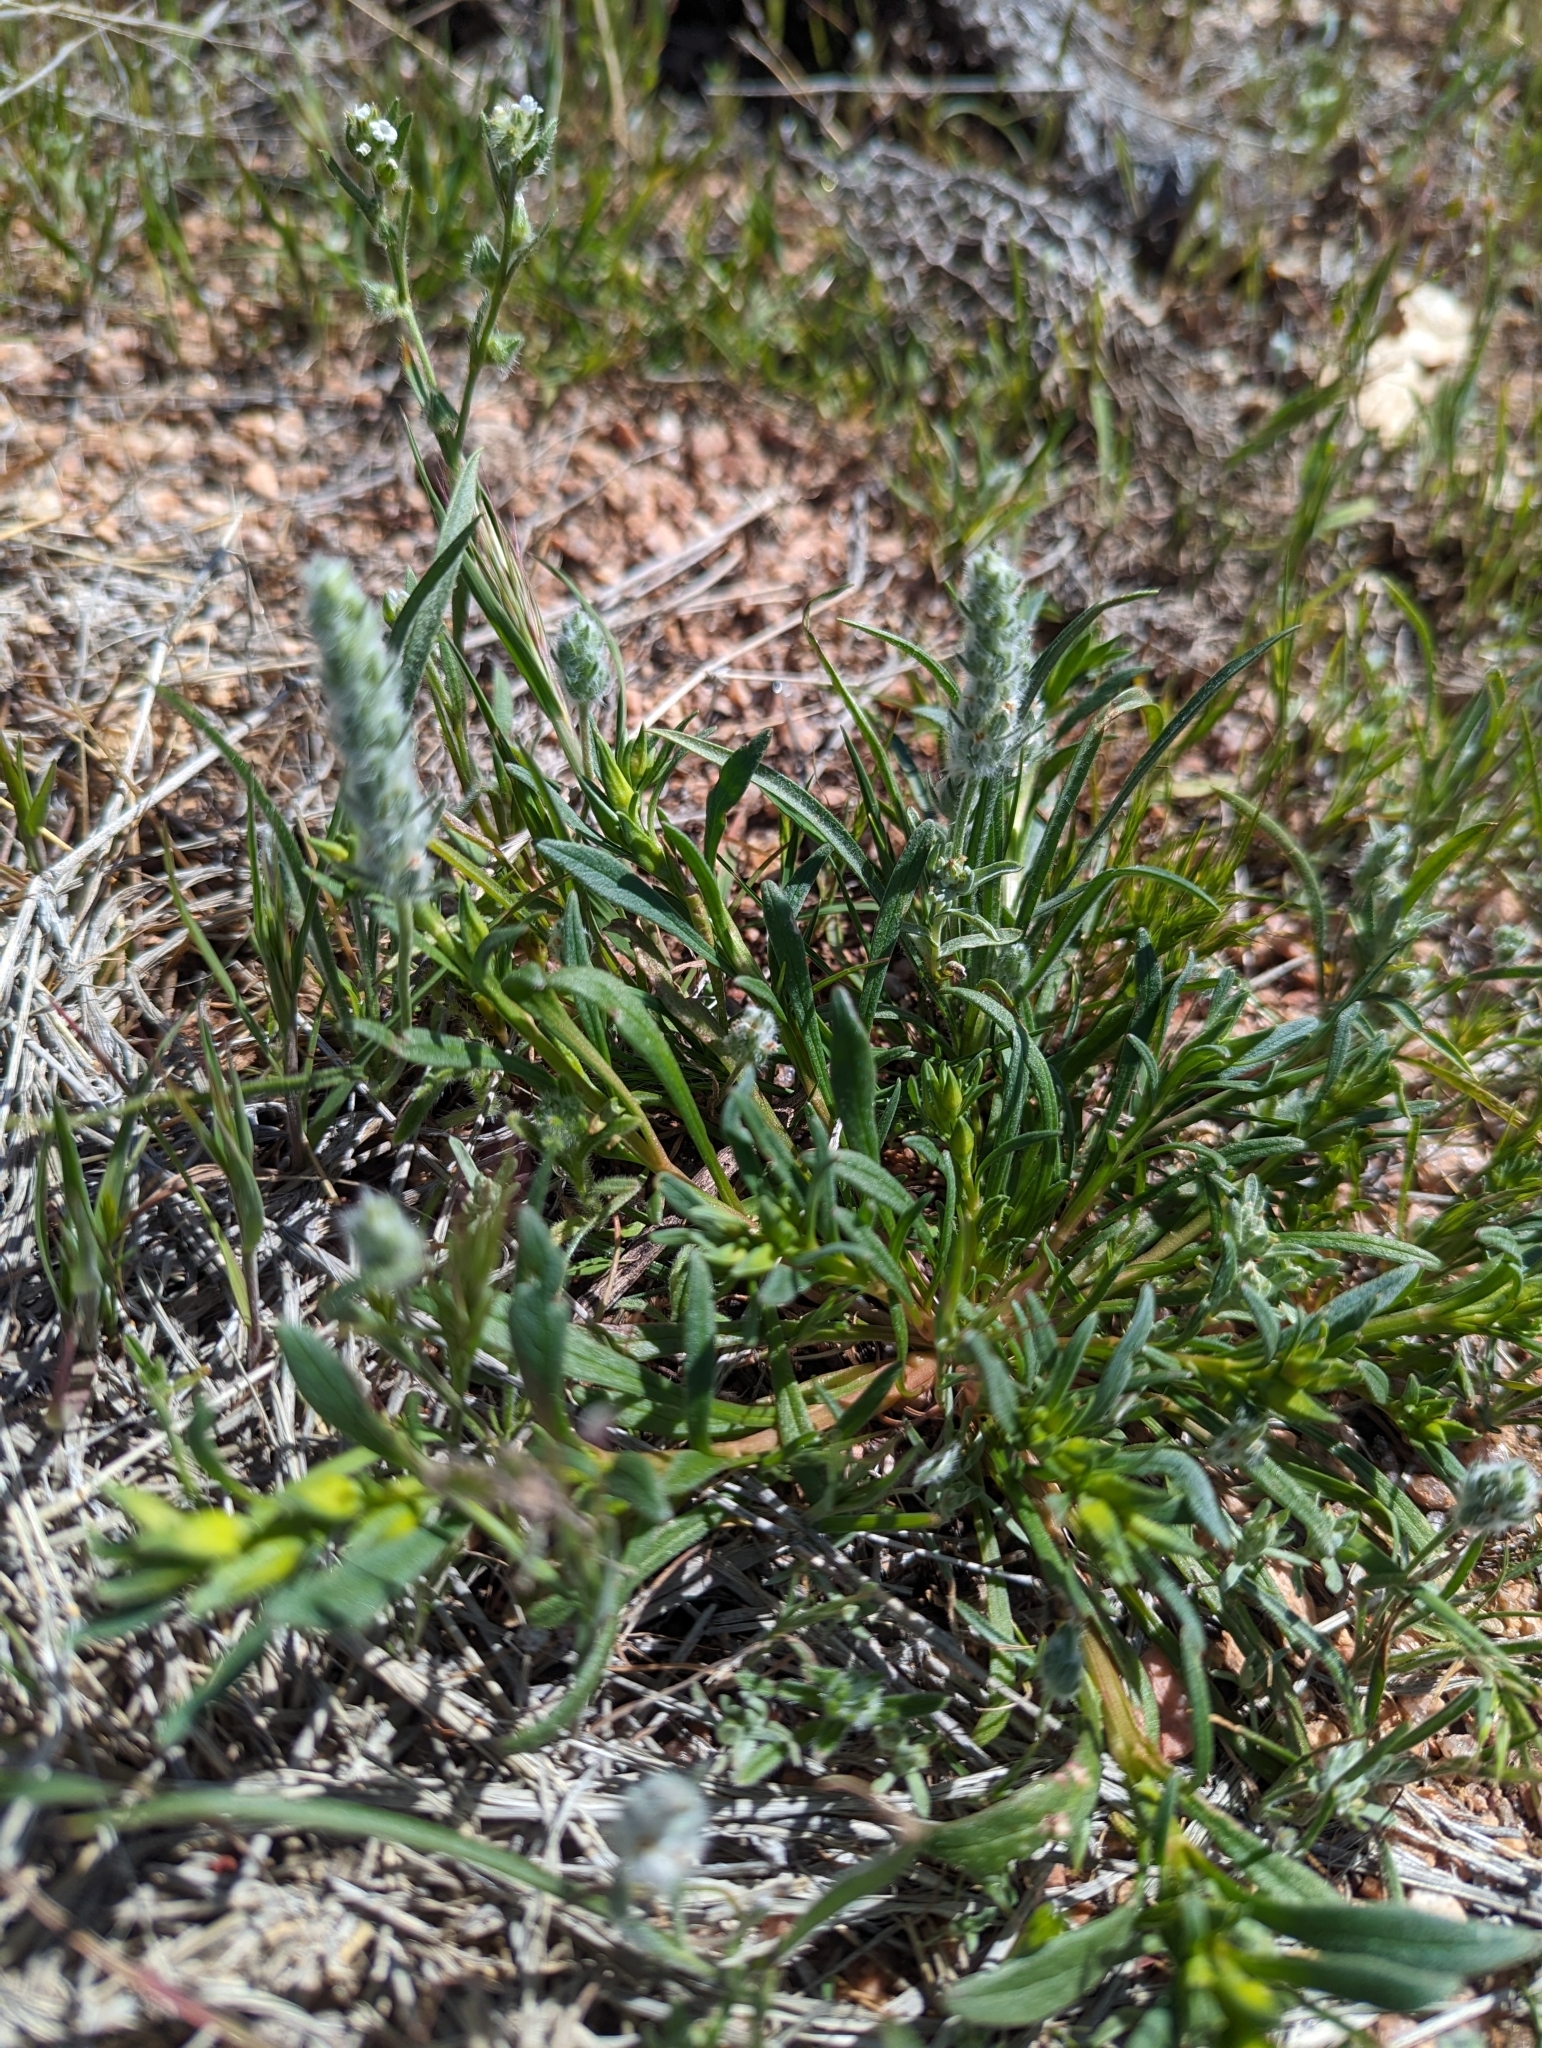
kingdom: Plantae
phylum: Tracheophyta
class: Magnoliopsida
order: Lamiales
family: Plantaginaceae
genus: Plantago
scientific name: Plantago patagonica
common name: Patagonia indian-wheat
